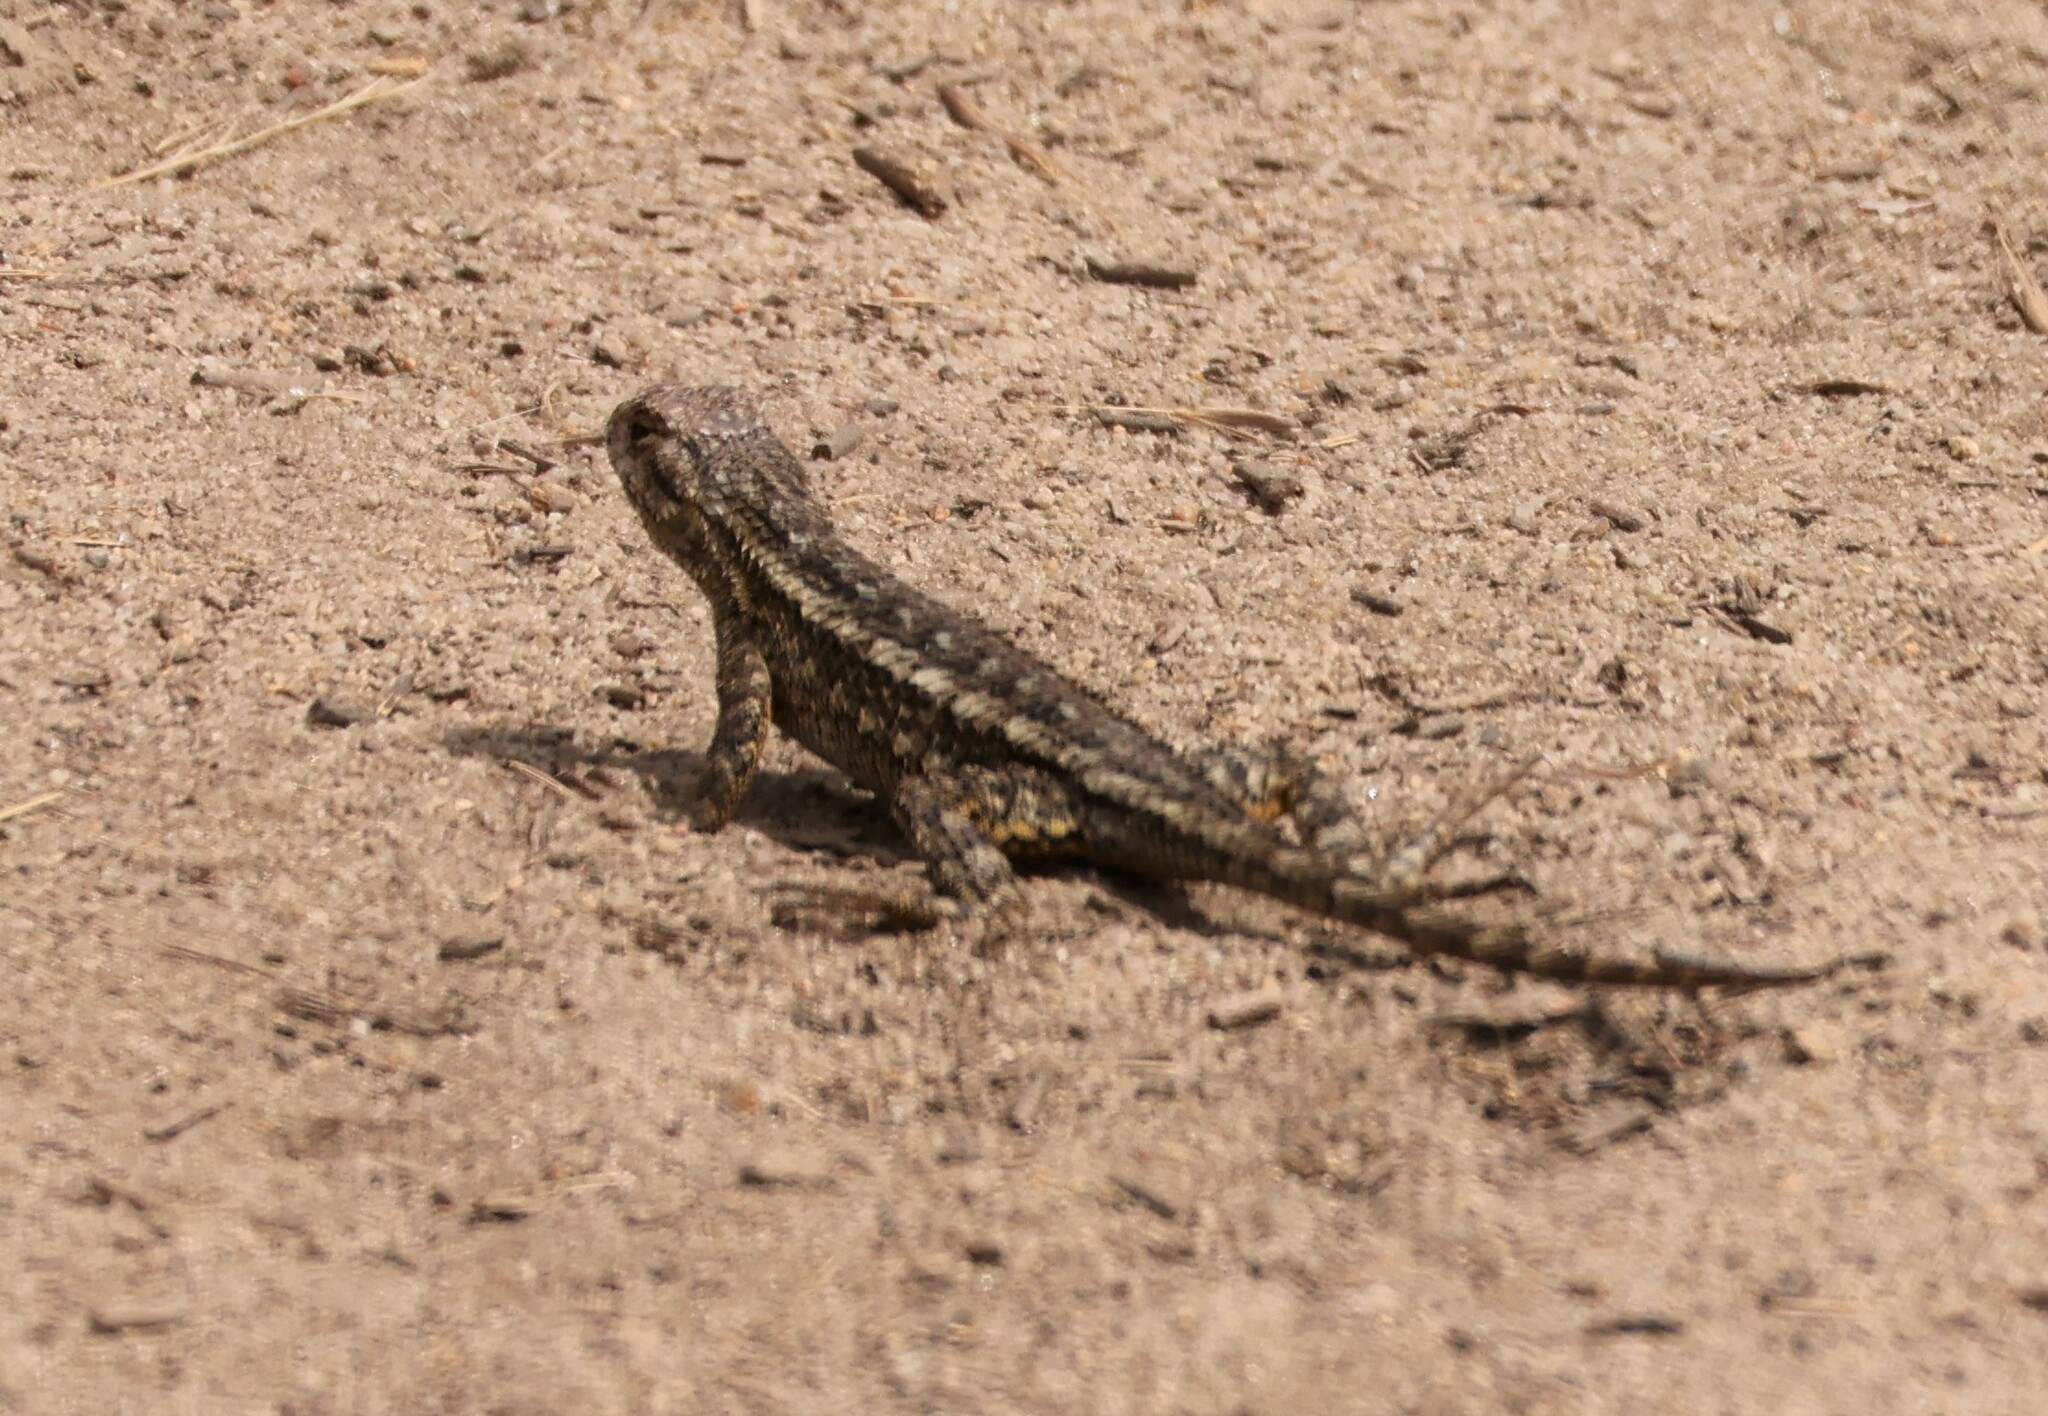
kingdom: Animalia
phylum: Chordata
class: Squamata
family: Phrynosomatidae
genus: Sceloporus
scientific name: Sceloporus occidentalis
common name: Western fence lizard
